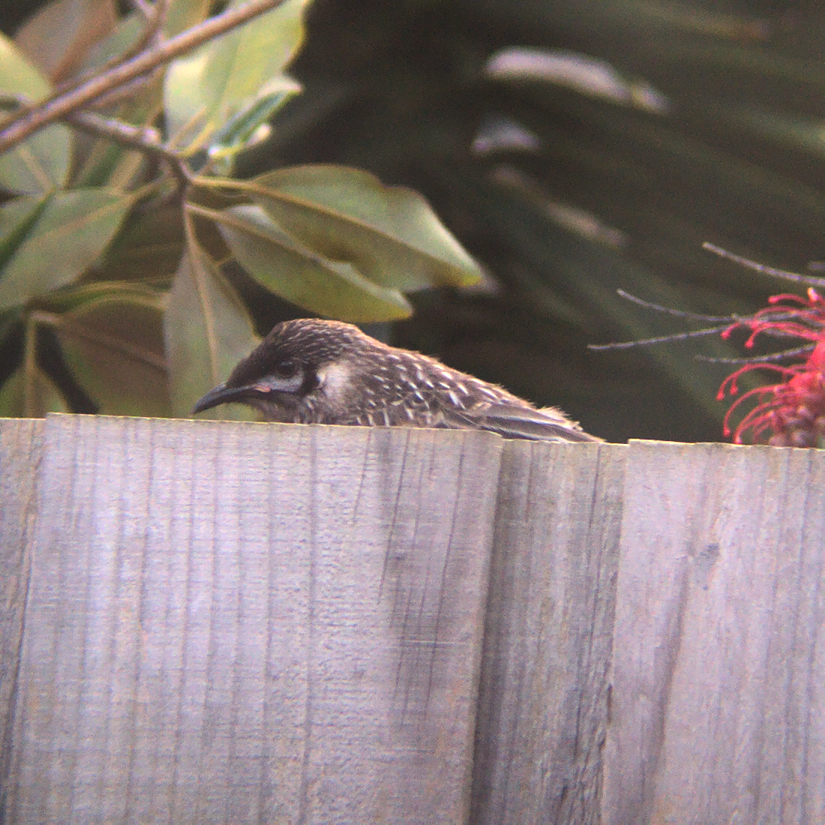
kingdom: Animalia
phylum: Chordata
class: Aves
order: Passeriformes
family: Meliphagidae
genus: Anthochaera
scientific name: Anthochaera carunculata
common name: Red wattlebird
